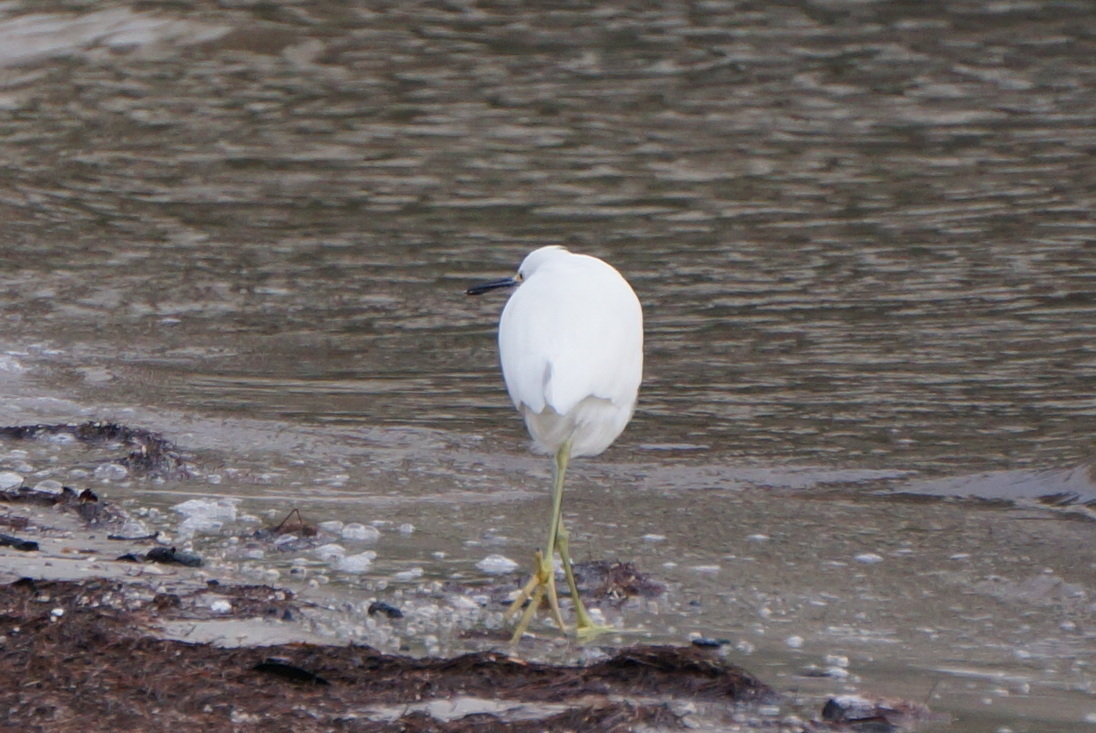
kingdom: Animalia
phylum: Chordata
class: Aves
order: Pelecaniformes
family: Ardeidae
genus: Egretta
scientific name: Egretta thula
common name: Snowy egret
